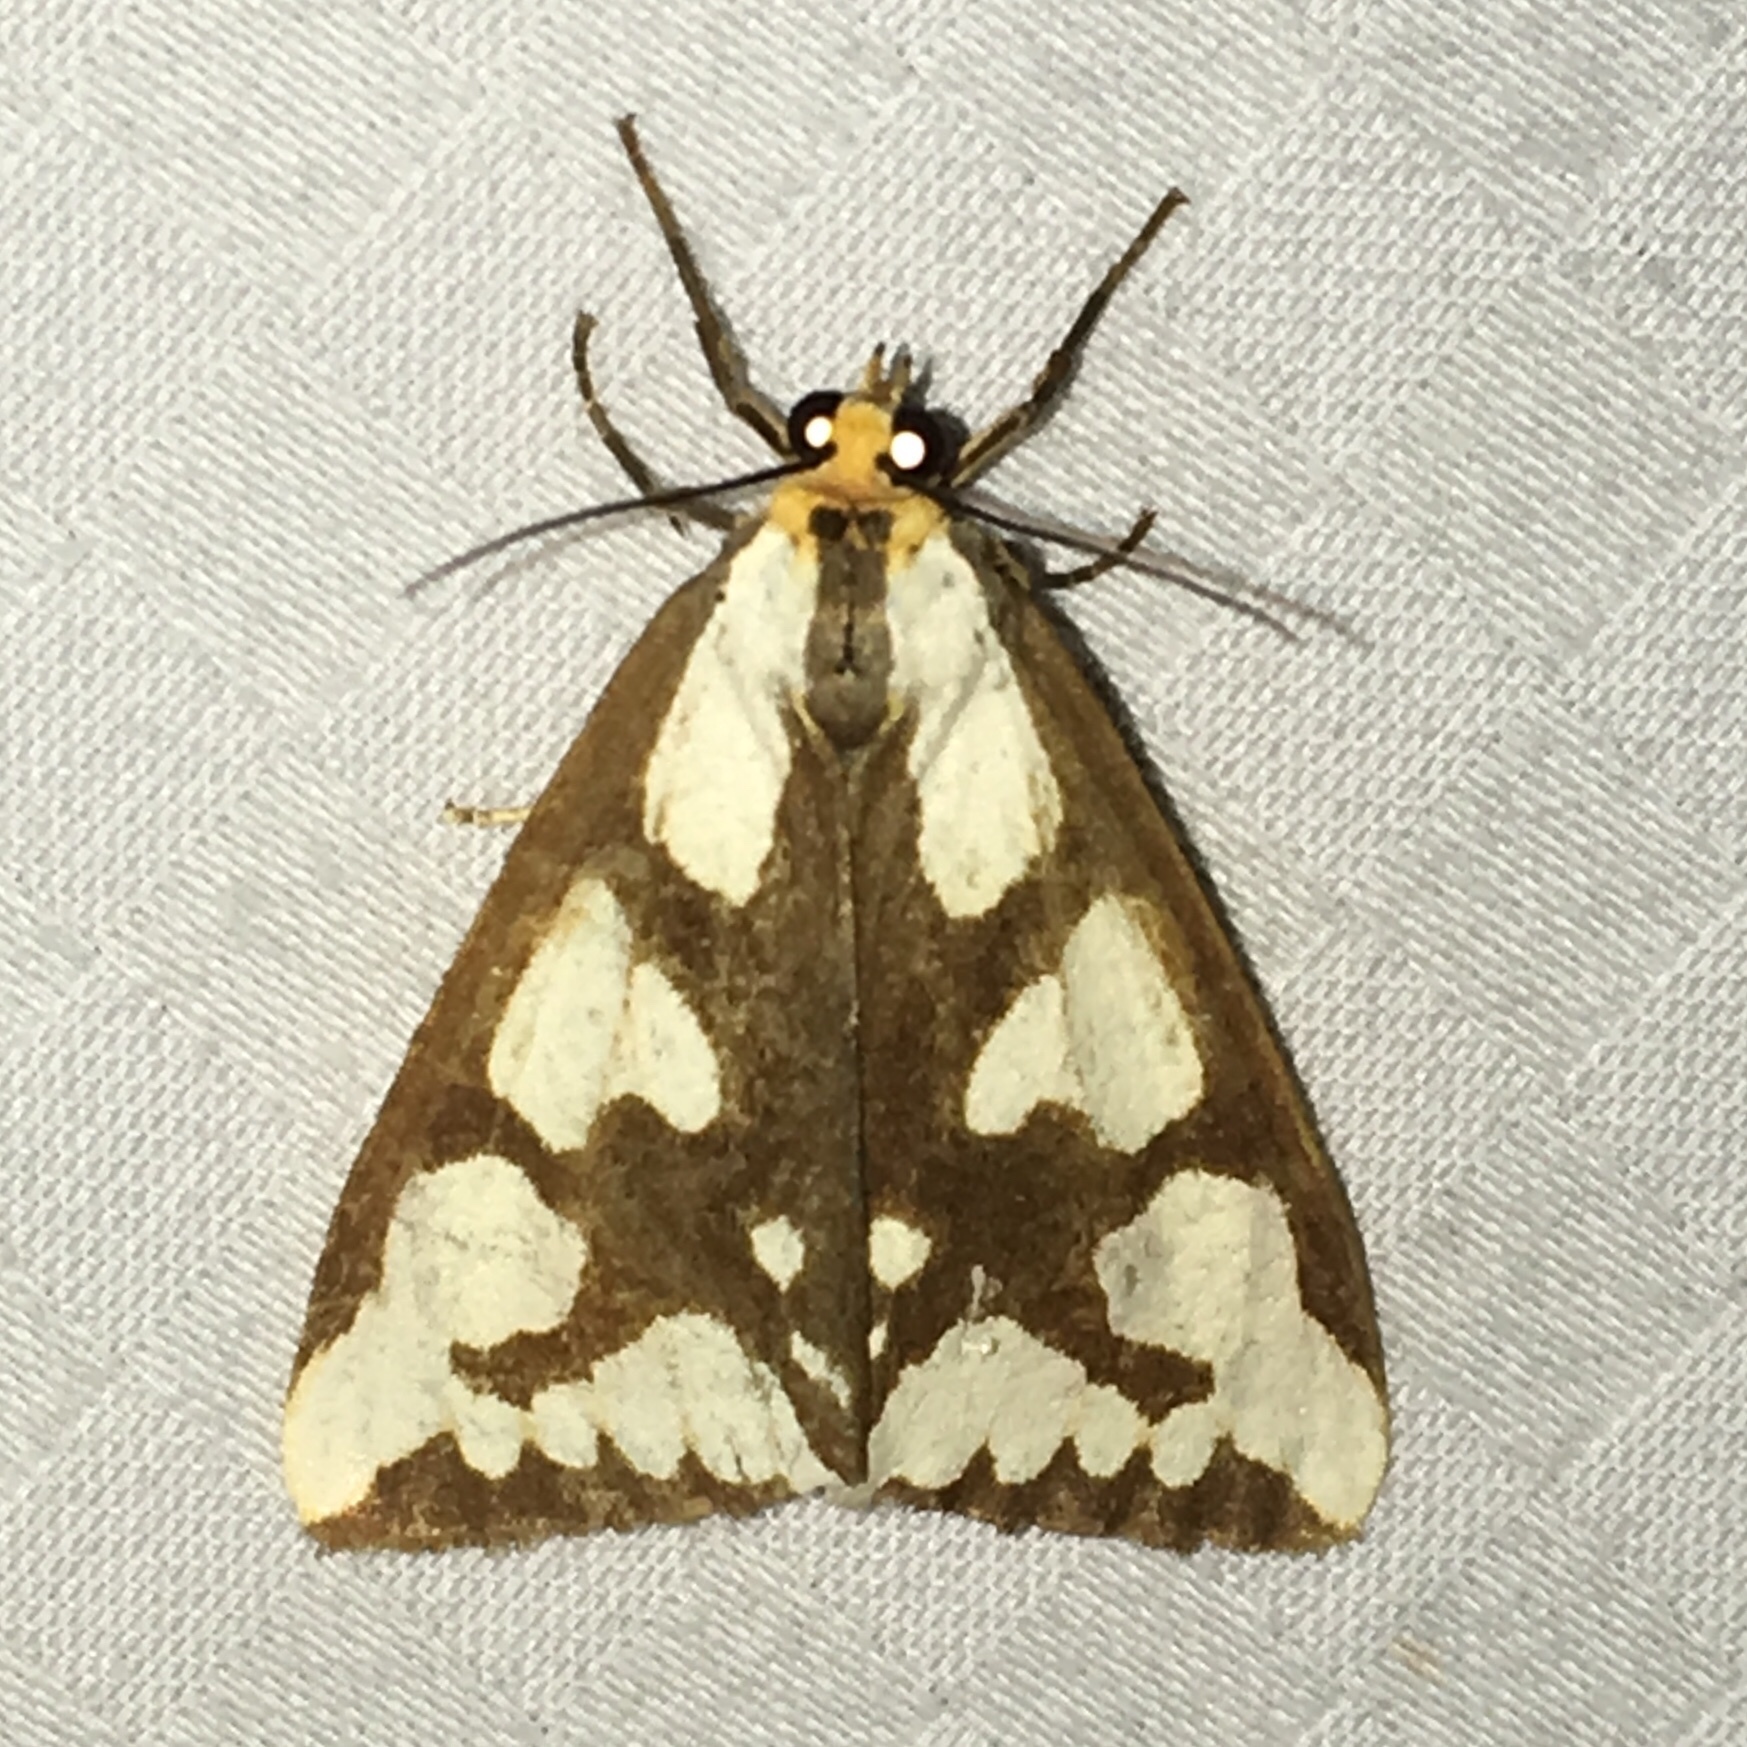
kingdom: Animalia
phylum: Arthropoda
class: Insecta
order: Lepidoptera
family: Erebidae
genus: Haploa
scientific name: Haploa confusa
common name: Confused haploa moth
